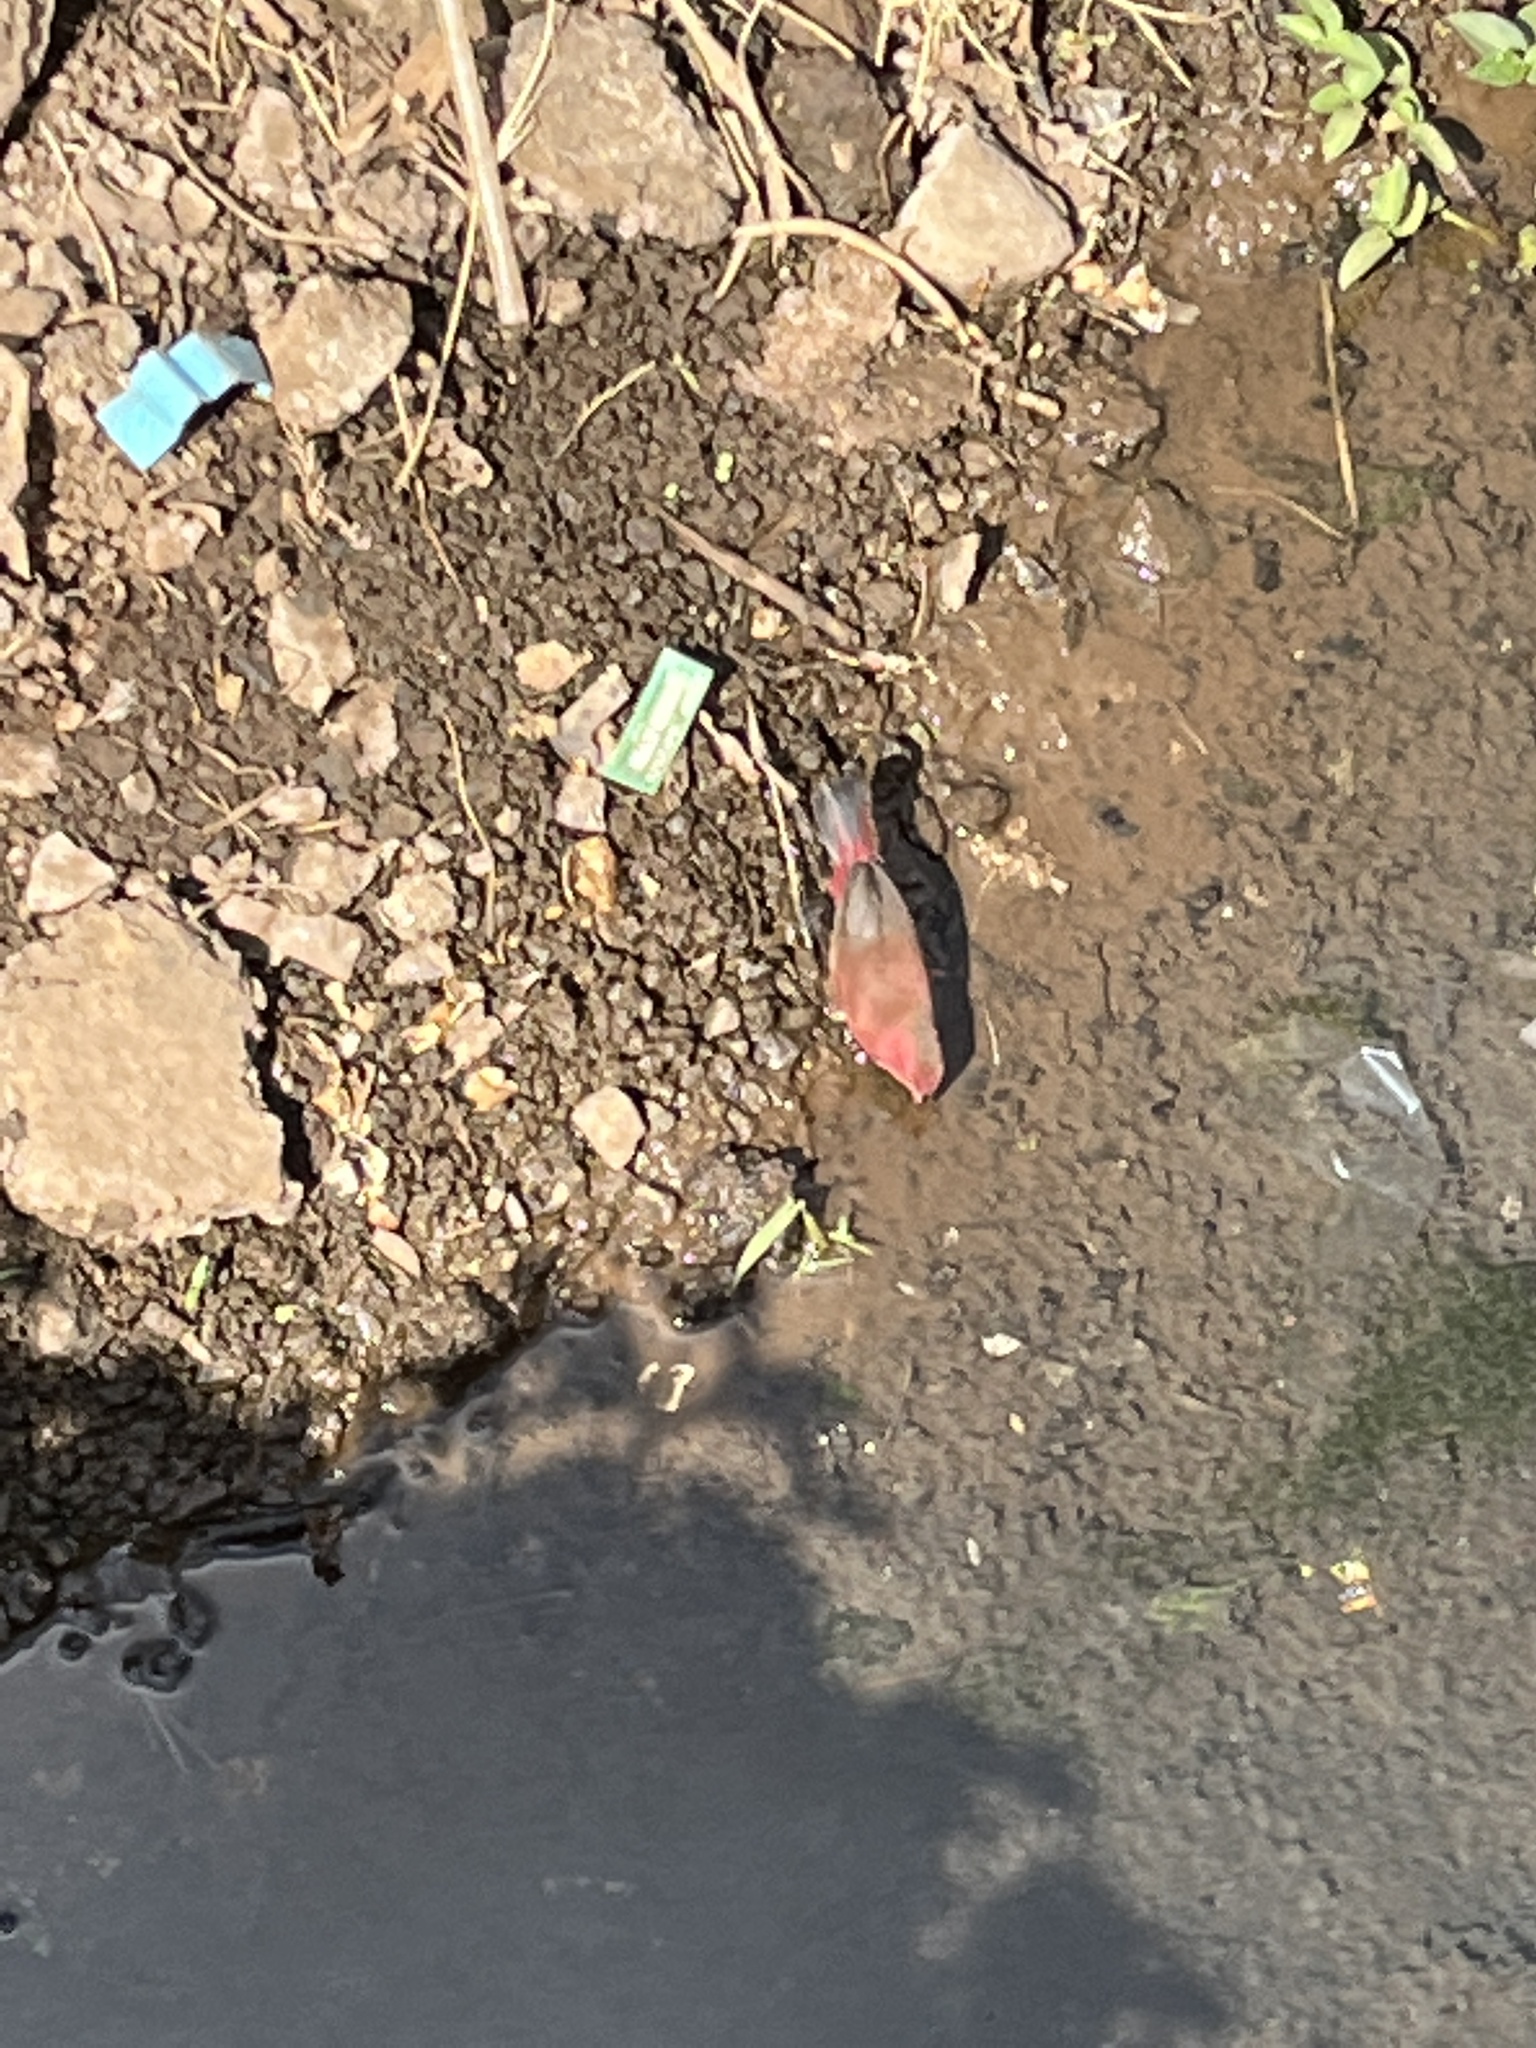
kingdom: Animalia
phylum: Chordata
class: Aves
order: Passeriformes
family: Estrildidae
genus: Lagonosticta
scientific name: Lagonosticta senegala
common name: Red-billed firefinch
